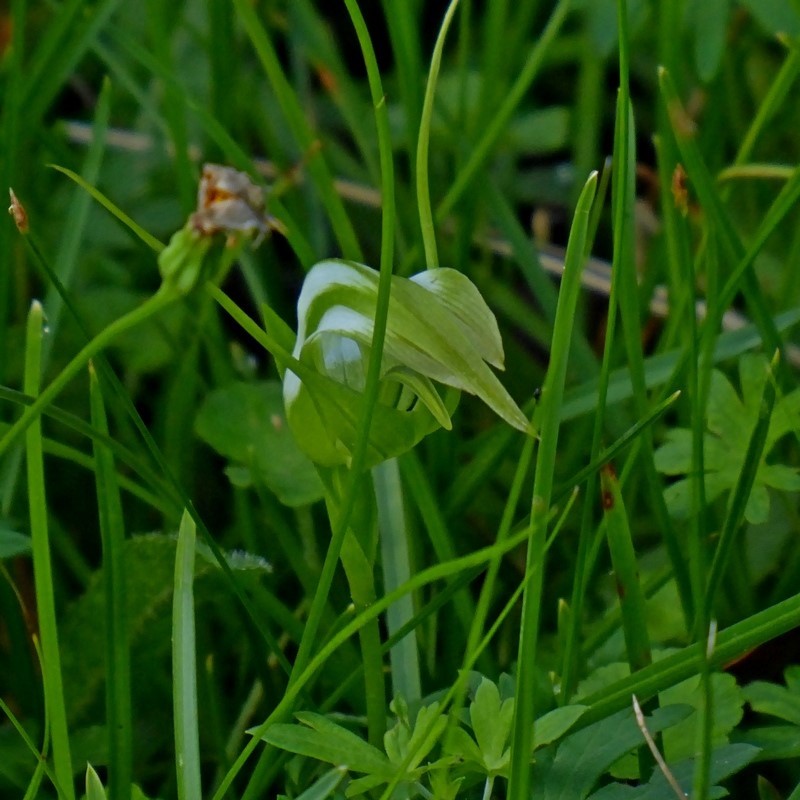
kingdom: Plantae
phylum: Tracheophyta
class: Liliopsida
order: Asparagales
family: Orchidaceae
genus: Pterostylis
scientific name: Pterostylis falcata
